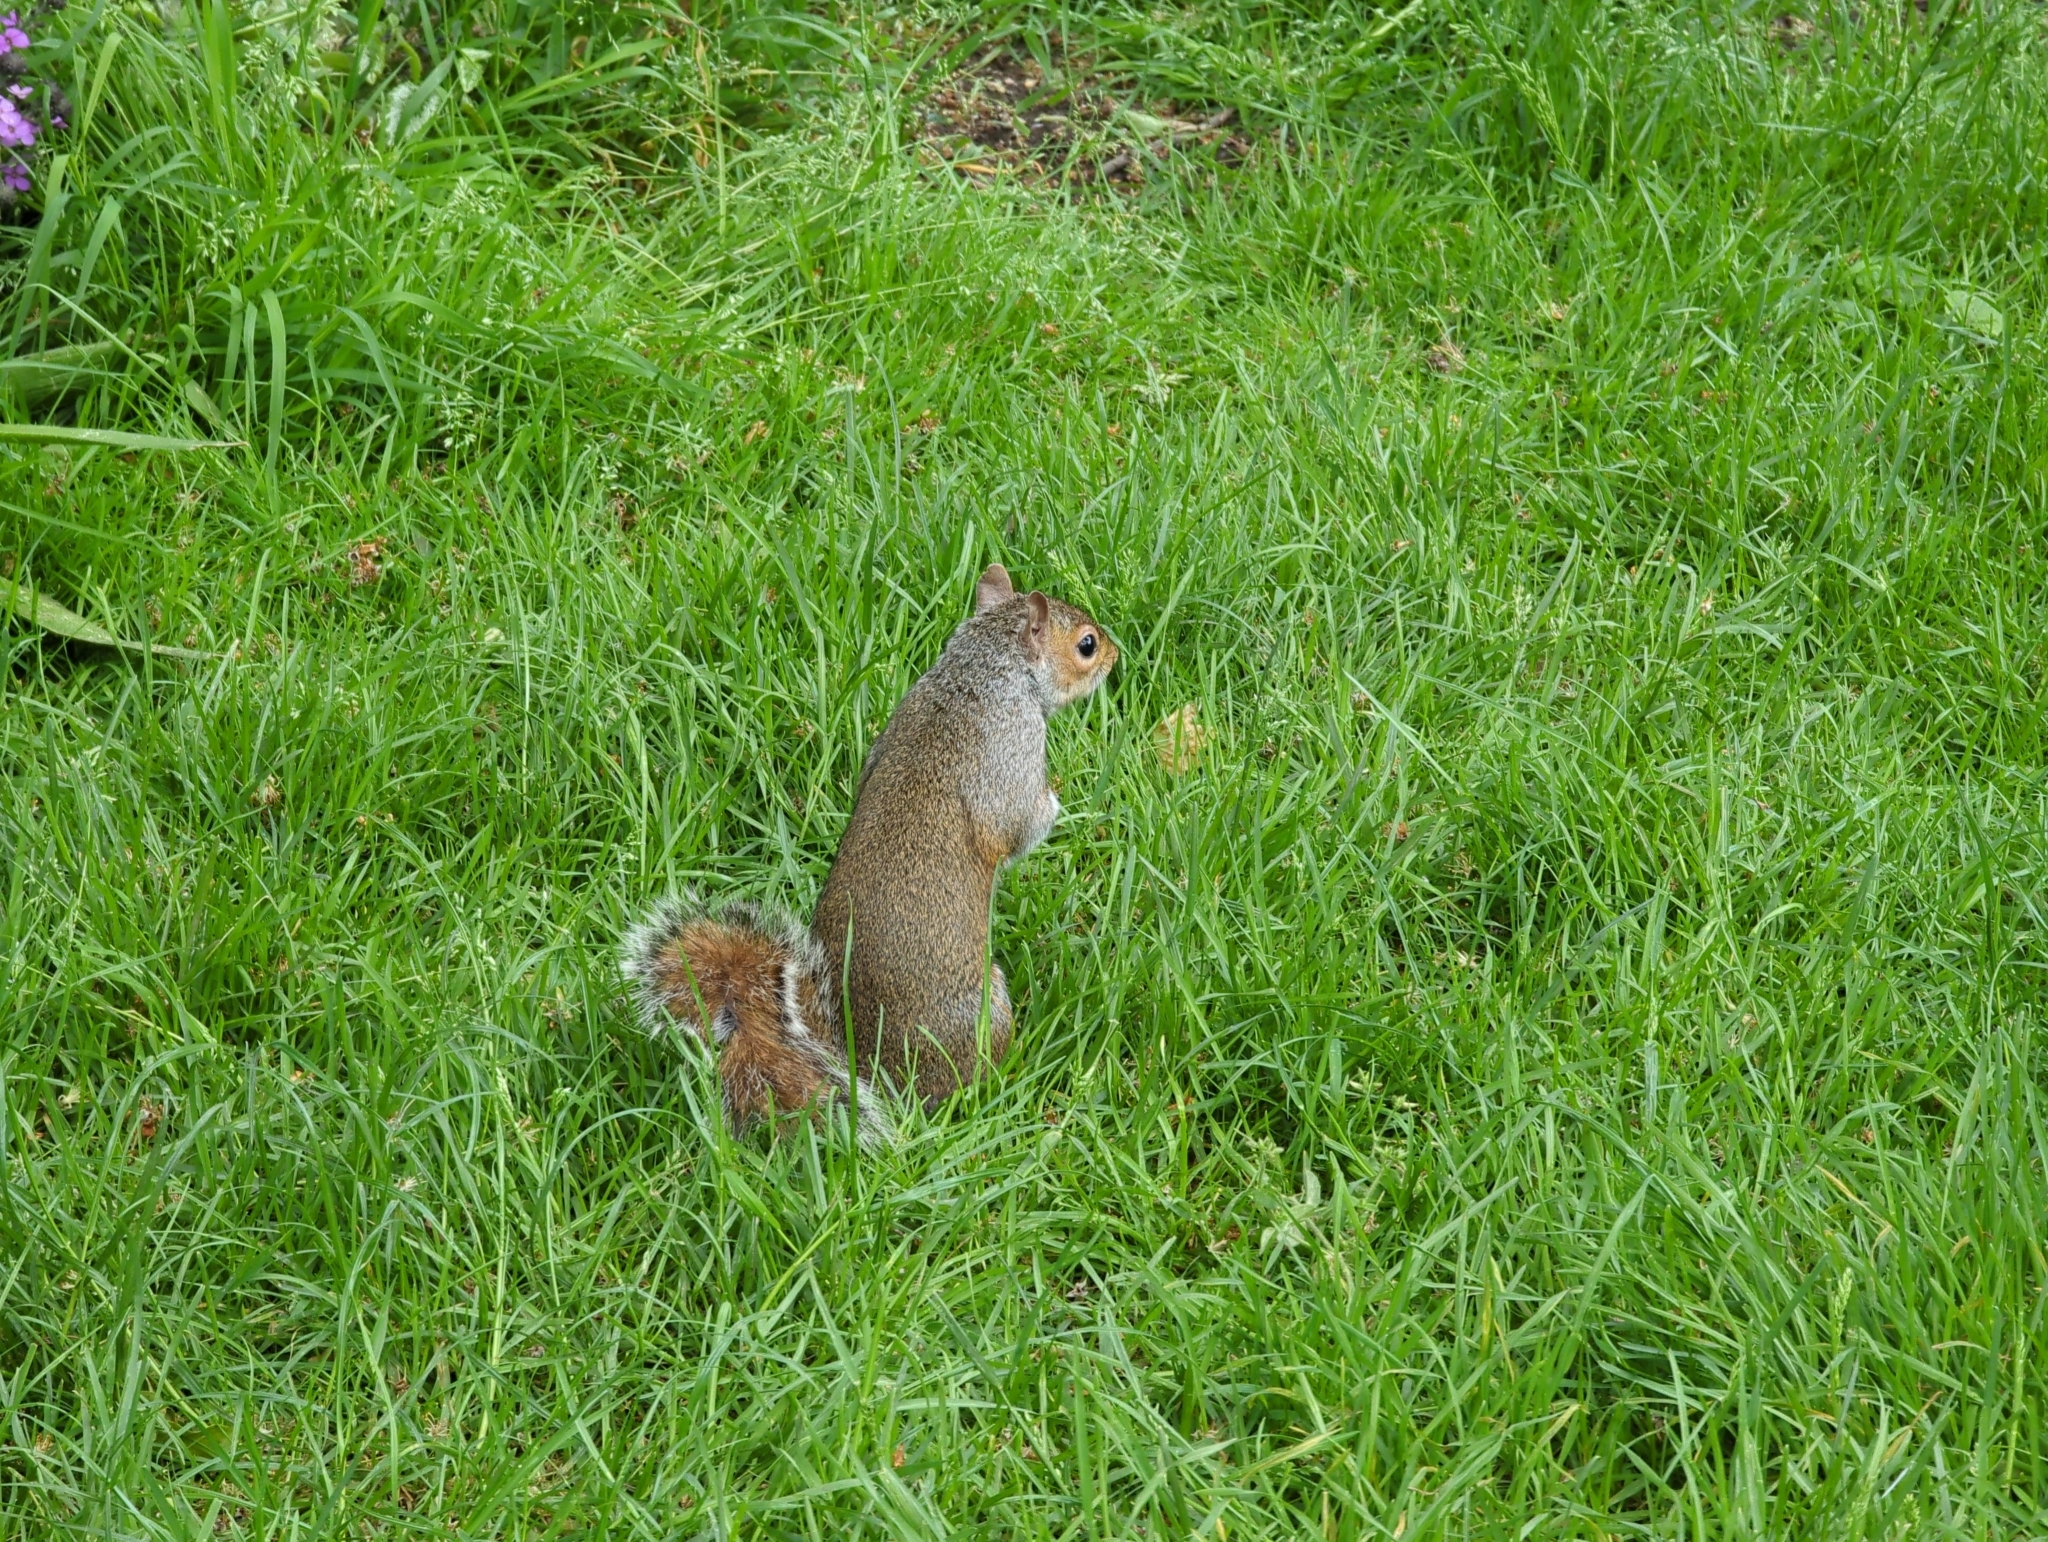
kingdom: Animalia
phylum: Chordata
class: Mammalia
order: Rodentia
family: Sciuridae
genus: Sciurus
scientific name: Sciurus carolinensis
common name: Eastern gray squirrel
